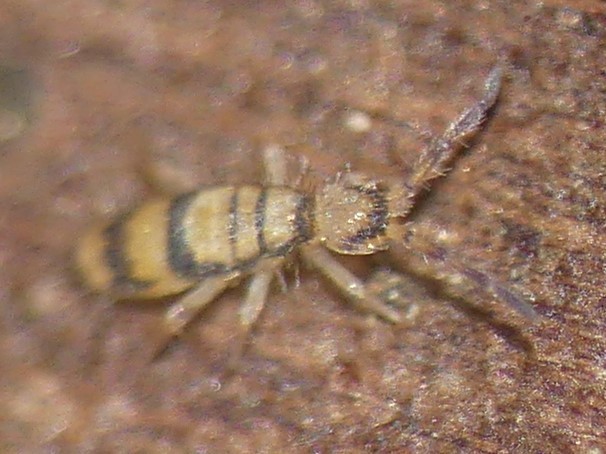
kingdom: Animalia
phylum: Arthropoda
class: Collembola
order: Entomobryomorpha
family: Entomobryidae
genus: Entomobrya
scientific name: Entomobrya corticalis
